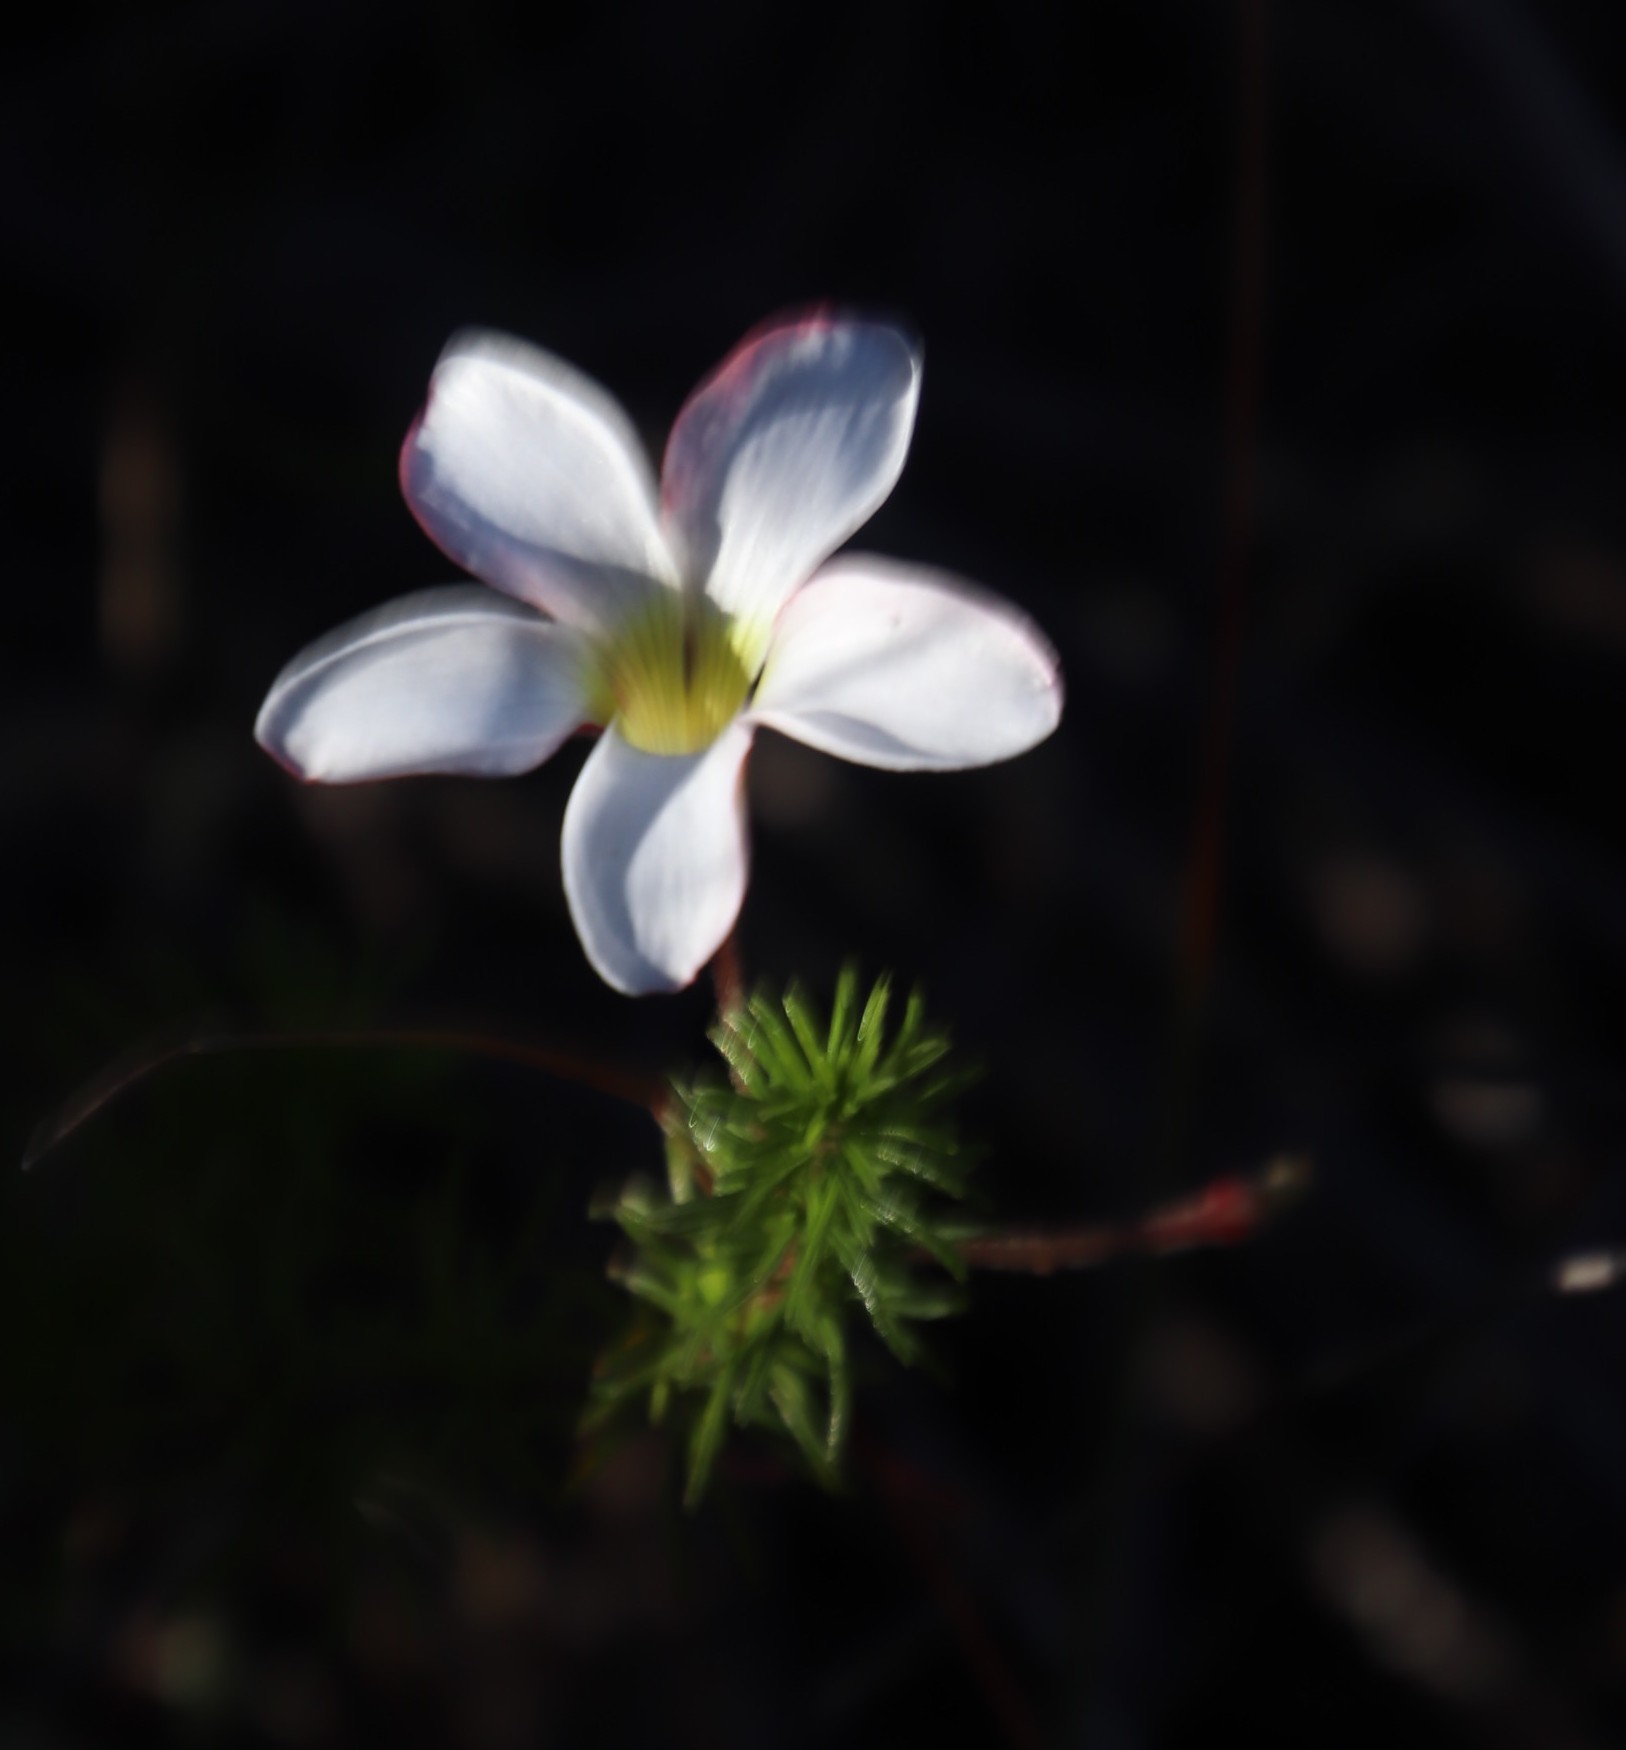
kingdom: Plantae
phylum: Tracheophyta
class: Magnoliopsida
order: Oxalidales
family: Oxalidaceae
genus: Oxalis
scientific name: Oxalis tenuifolia
